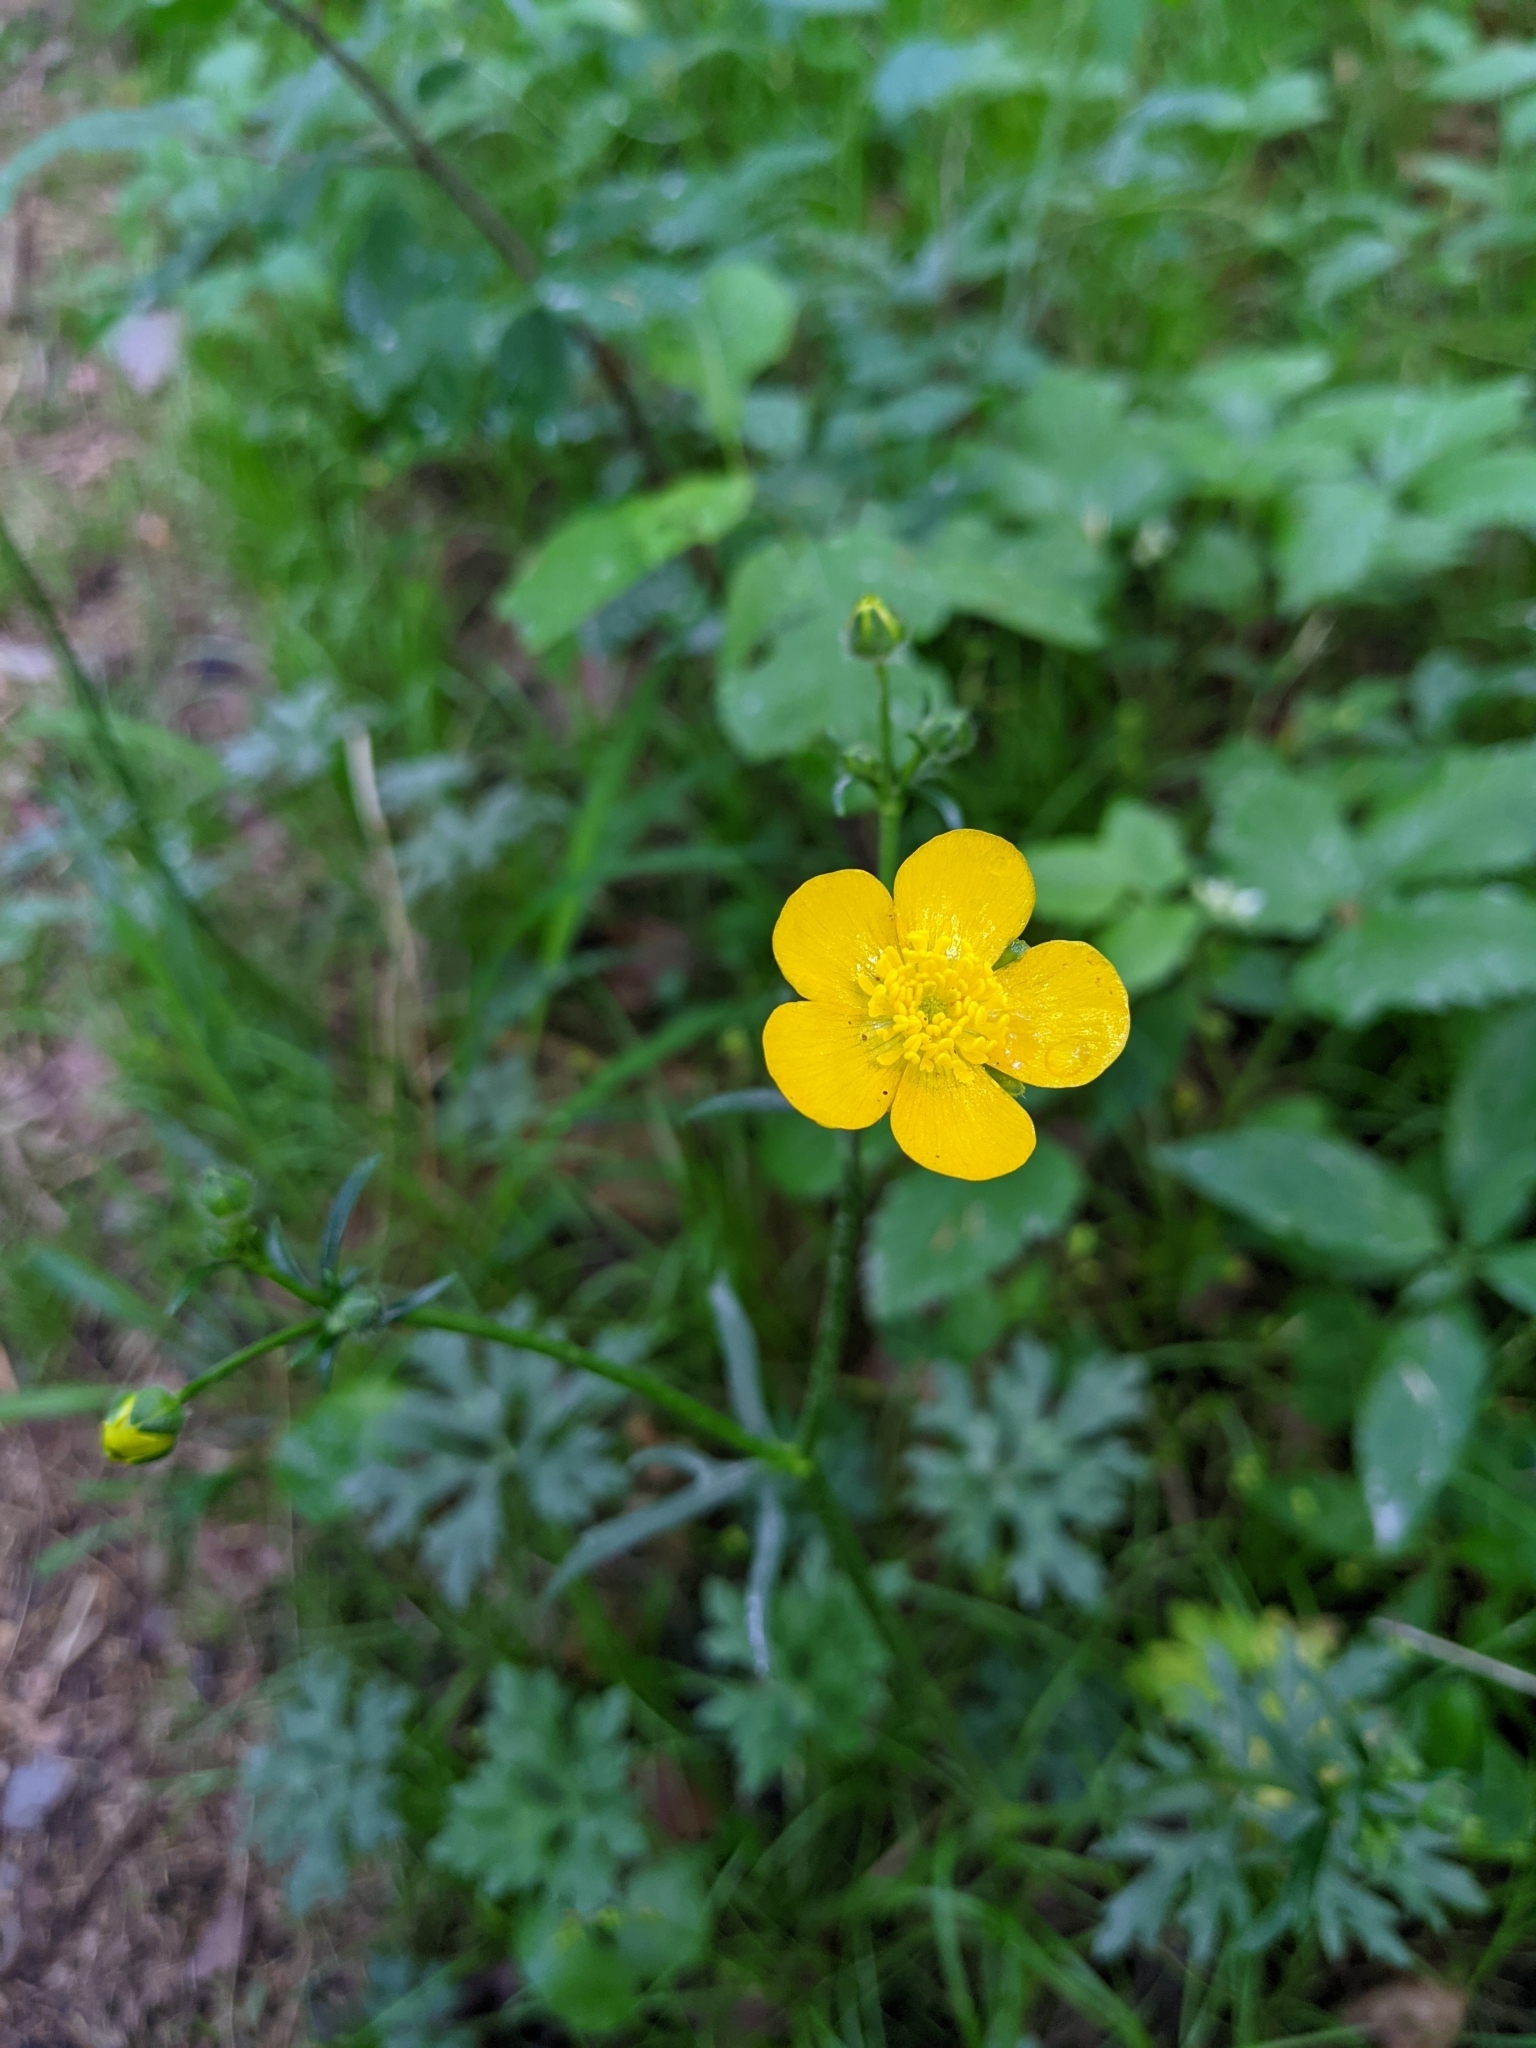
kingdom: Plantae
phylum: Tracheophyta
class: Magnoliopsida
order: Ranunculales
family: Ranunculaceae
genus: Ranunculus
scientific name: Ranunculus acris
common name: Meadow buttercup
